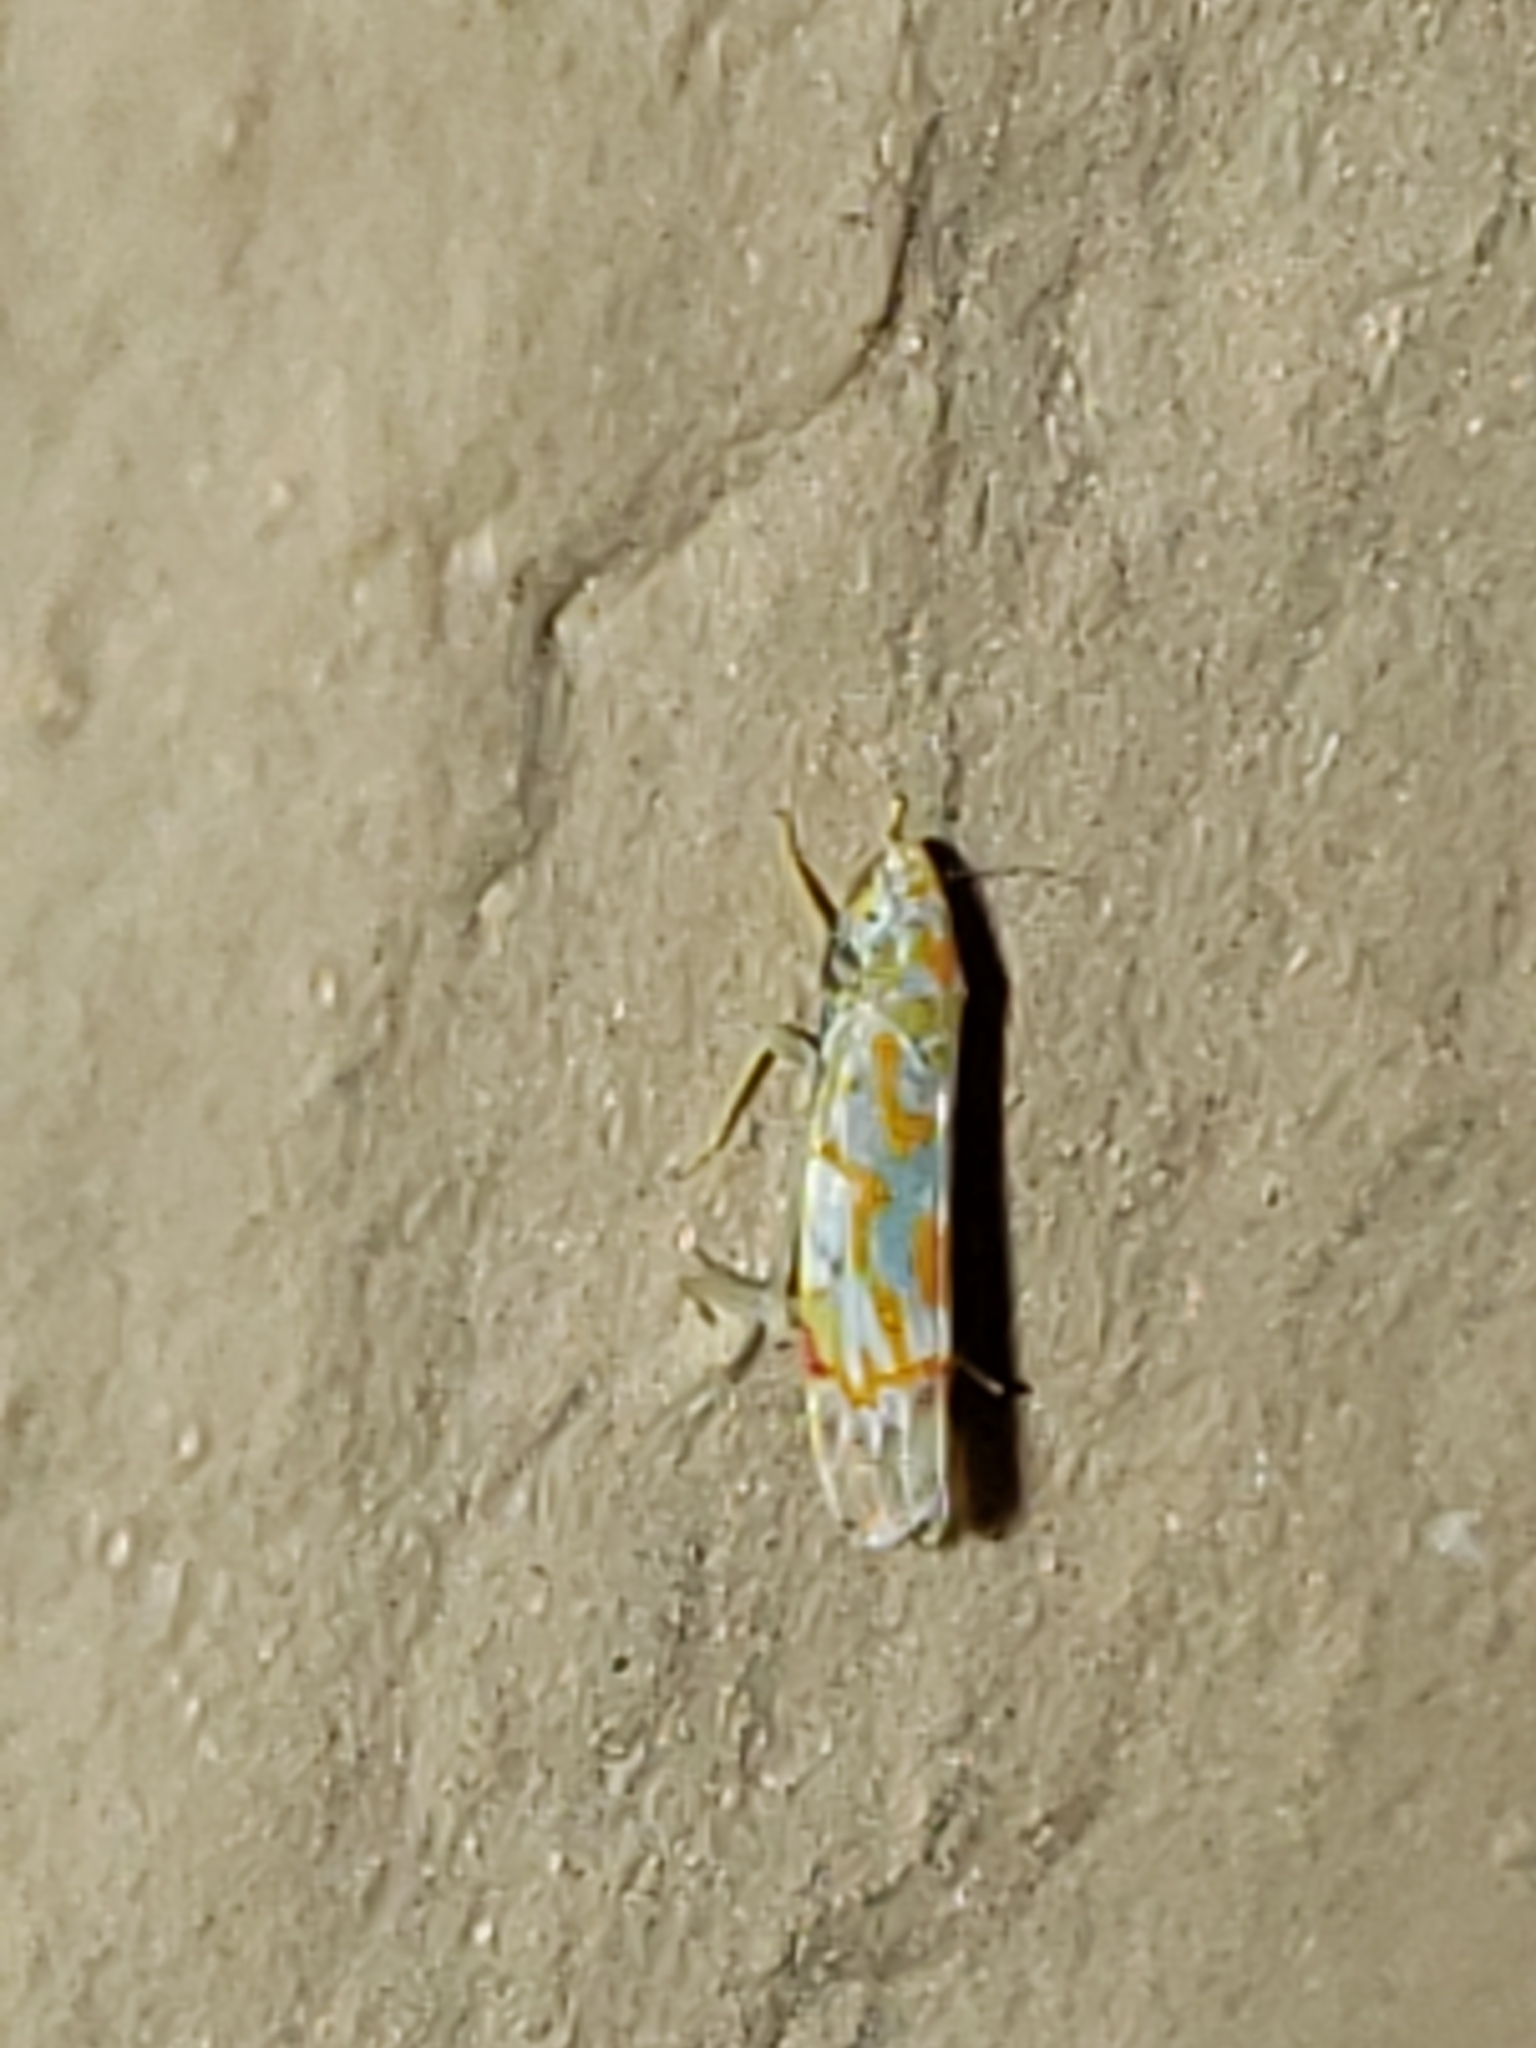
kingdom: Animalia
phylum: Arthropoda
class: Insecta
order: Hemiptera
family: Cicadellidae
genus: Erythroneura
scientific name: Erythroneura rubrella
